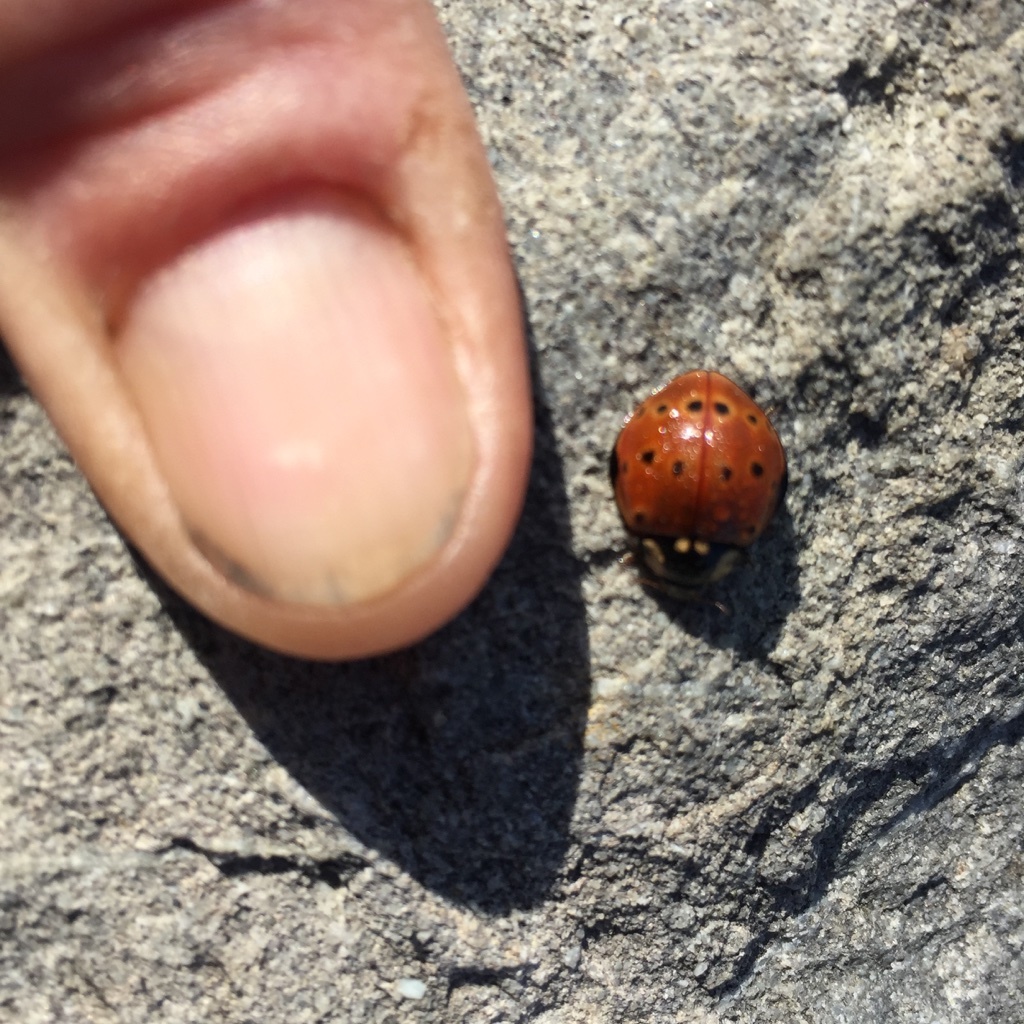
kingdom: Animalia
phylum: Arthropoda
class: Insecta
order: Coleoptera
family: Coccinellidae
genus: Anatis
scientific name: Anatis rathvoni
